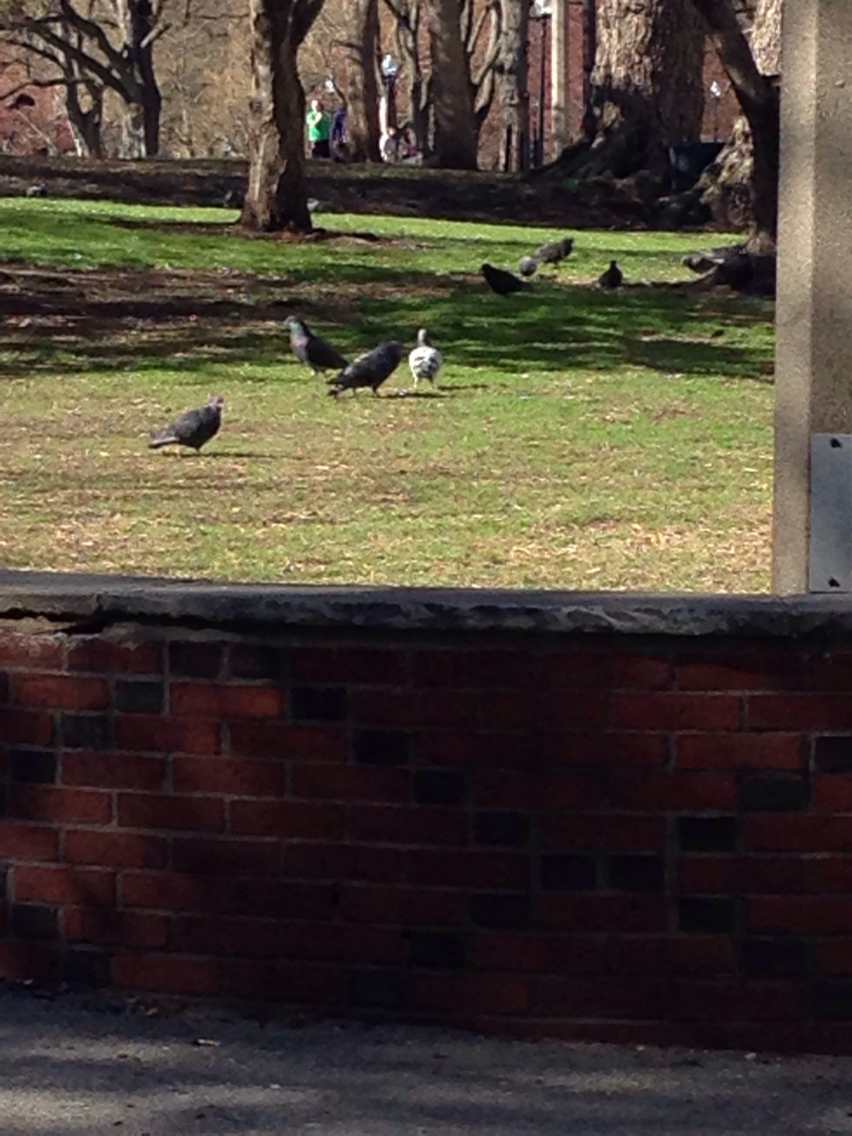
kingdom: Animalia
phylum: Chordata
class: Aves
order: Columbiformes
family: Columbidae
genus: Columba
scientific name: Columba livia
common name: Rock pigeon
